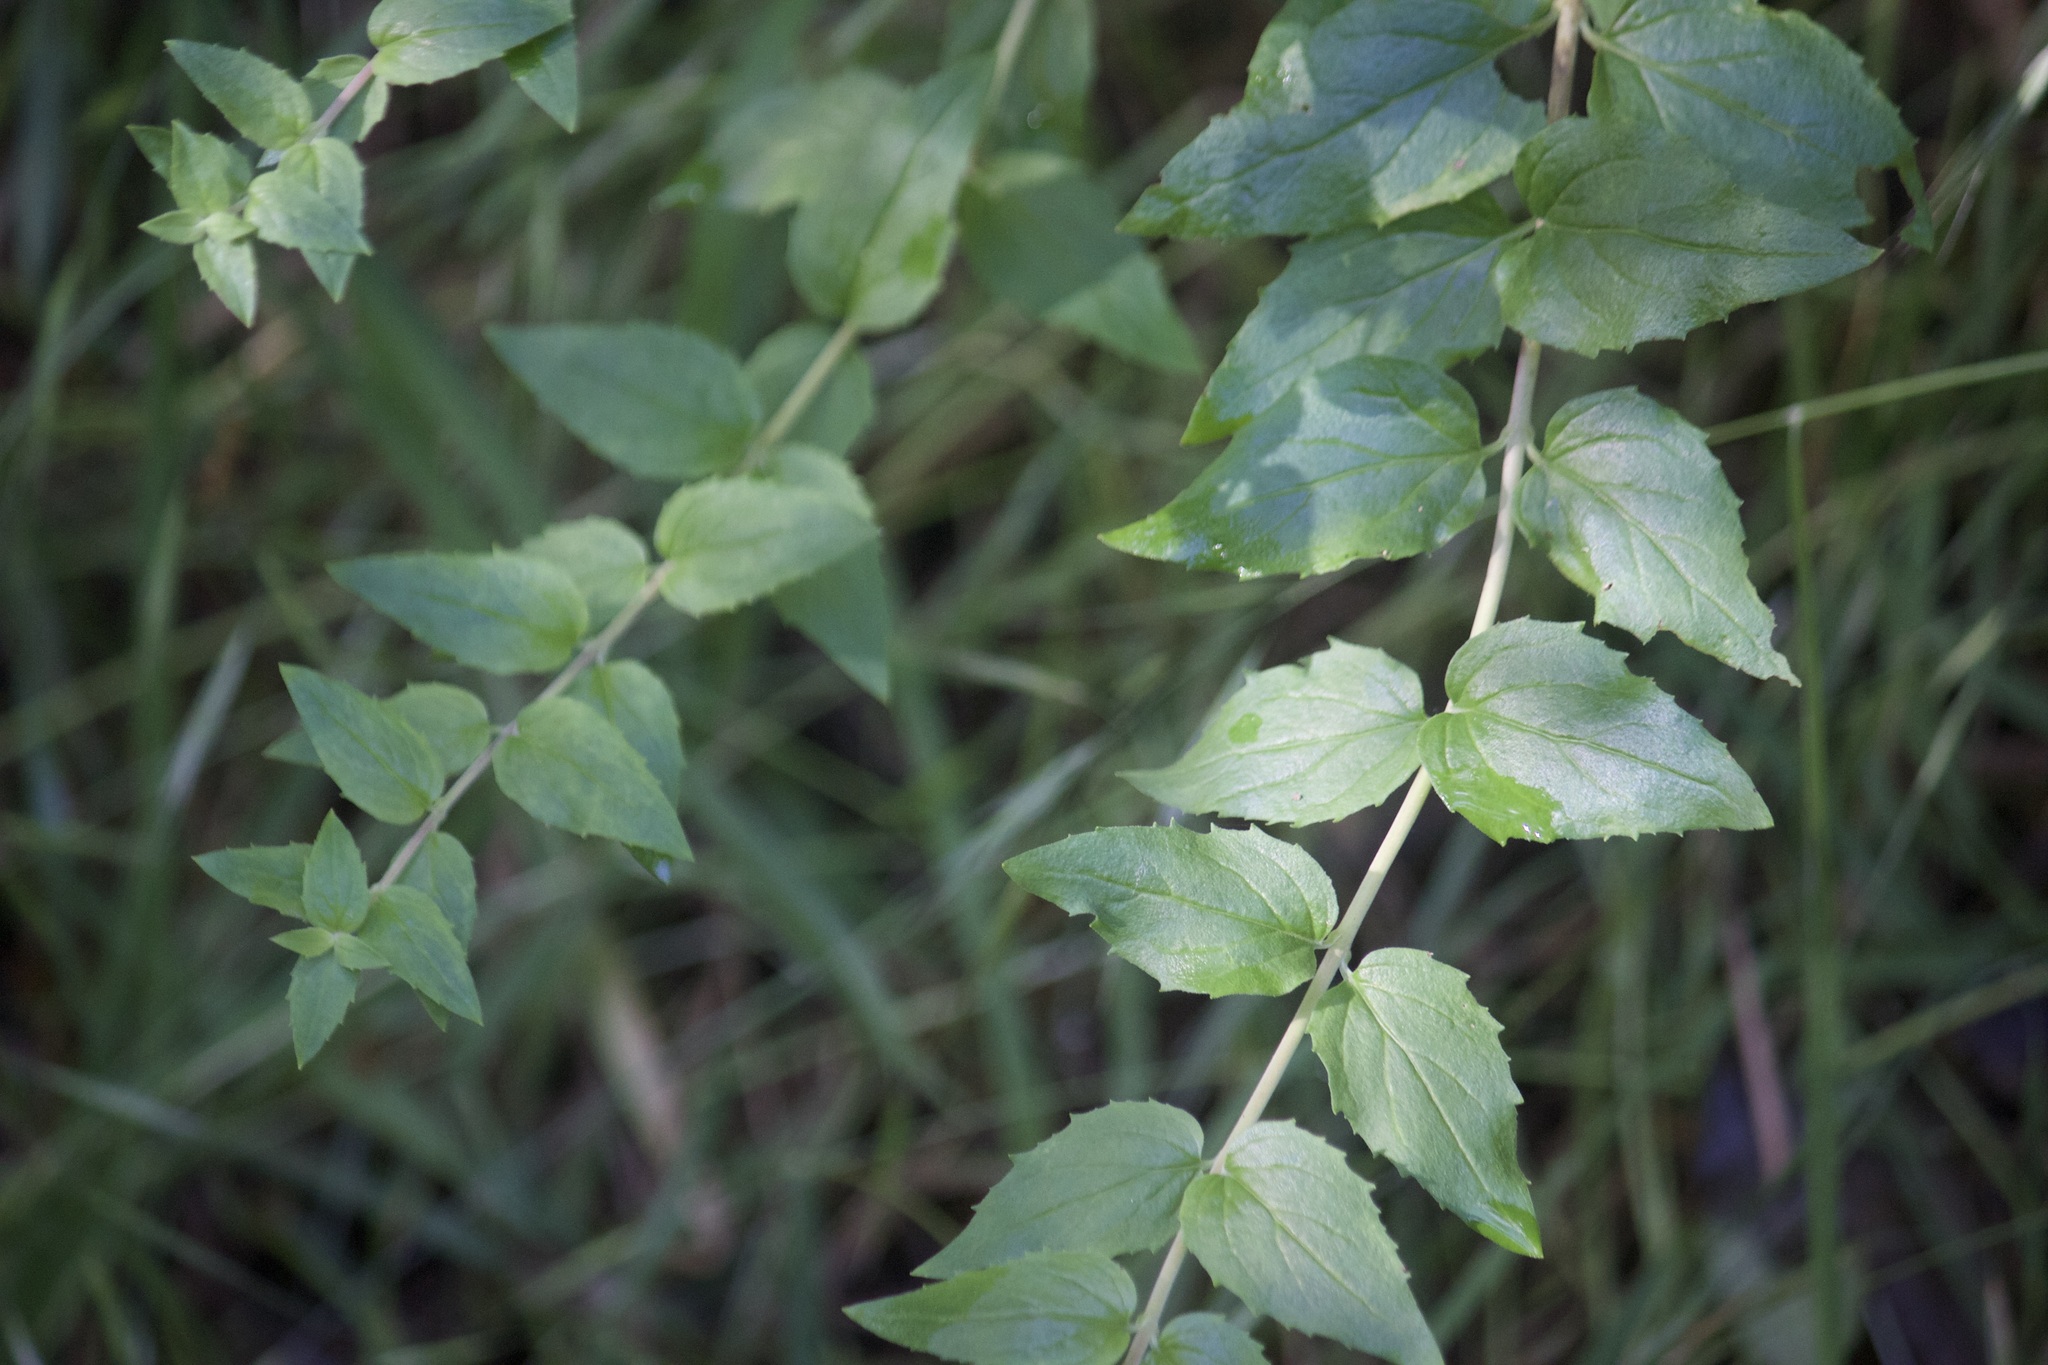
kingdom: Plantae
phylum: Tracheophyta
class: Magnoliopsida
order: Lamiales
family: Plantaginaceae
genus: Keckiella
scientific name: Keckiella cordifolia
